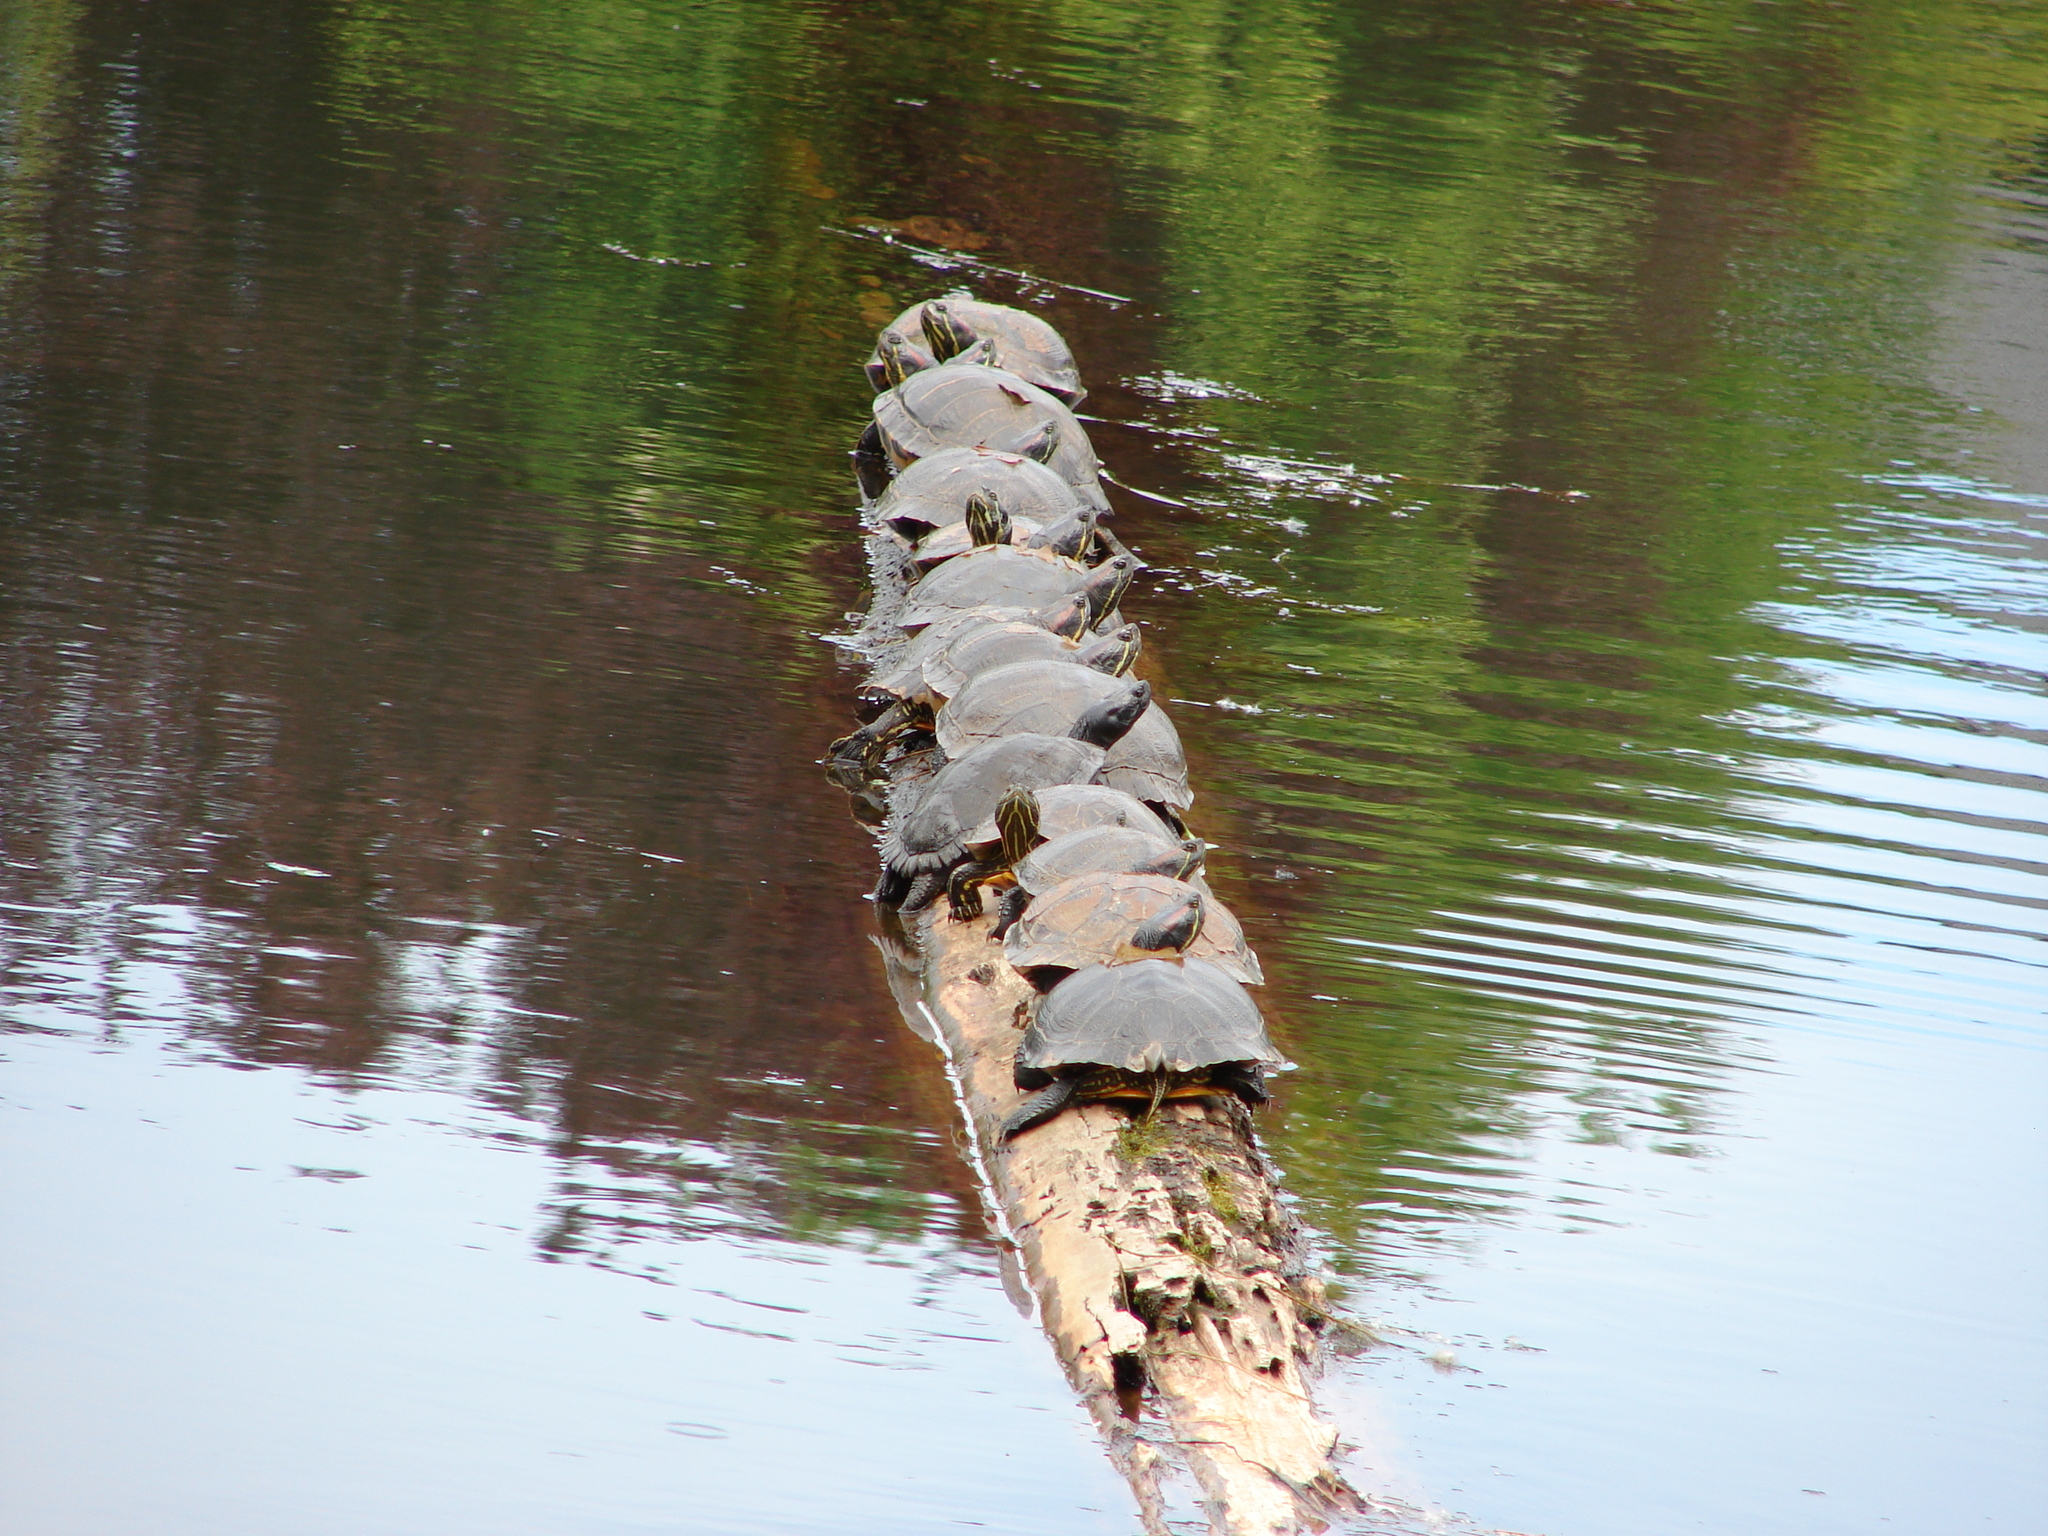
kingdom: Animalia
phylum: Chordata
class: Testudines
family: Emydidae
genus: Trachemys
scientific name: Trachemys scripta
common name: Slider
